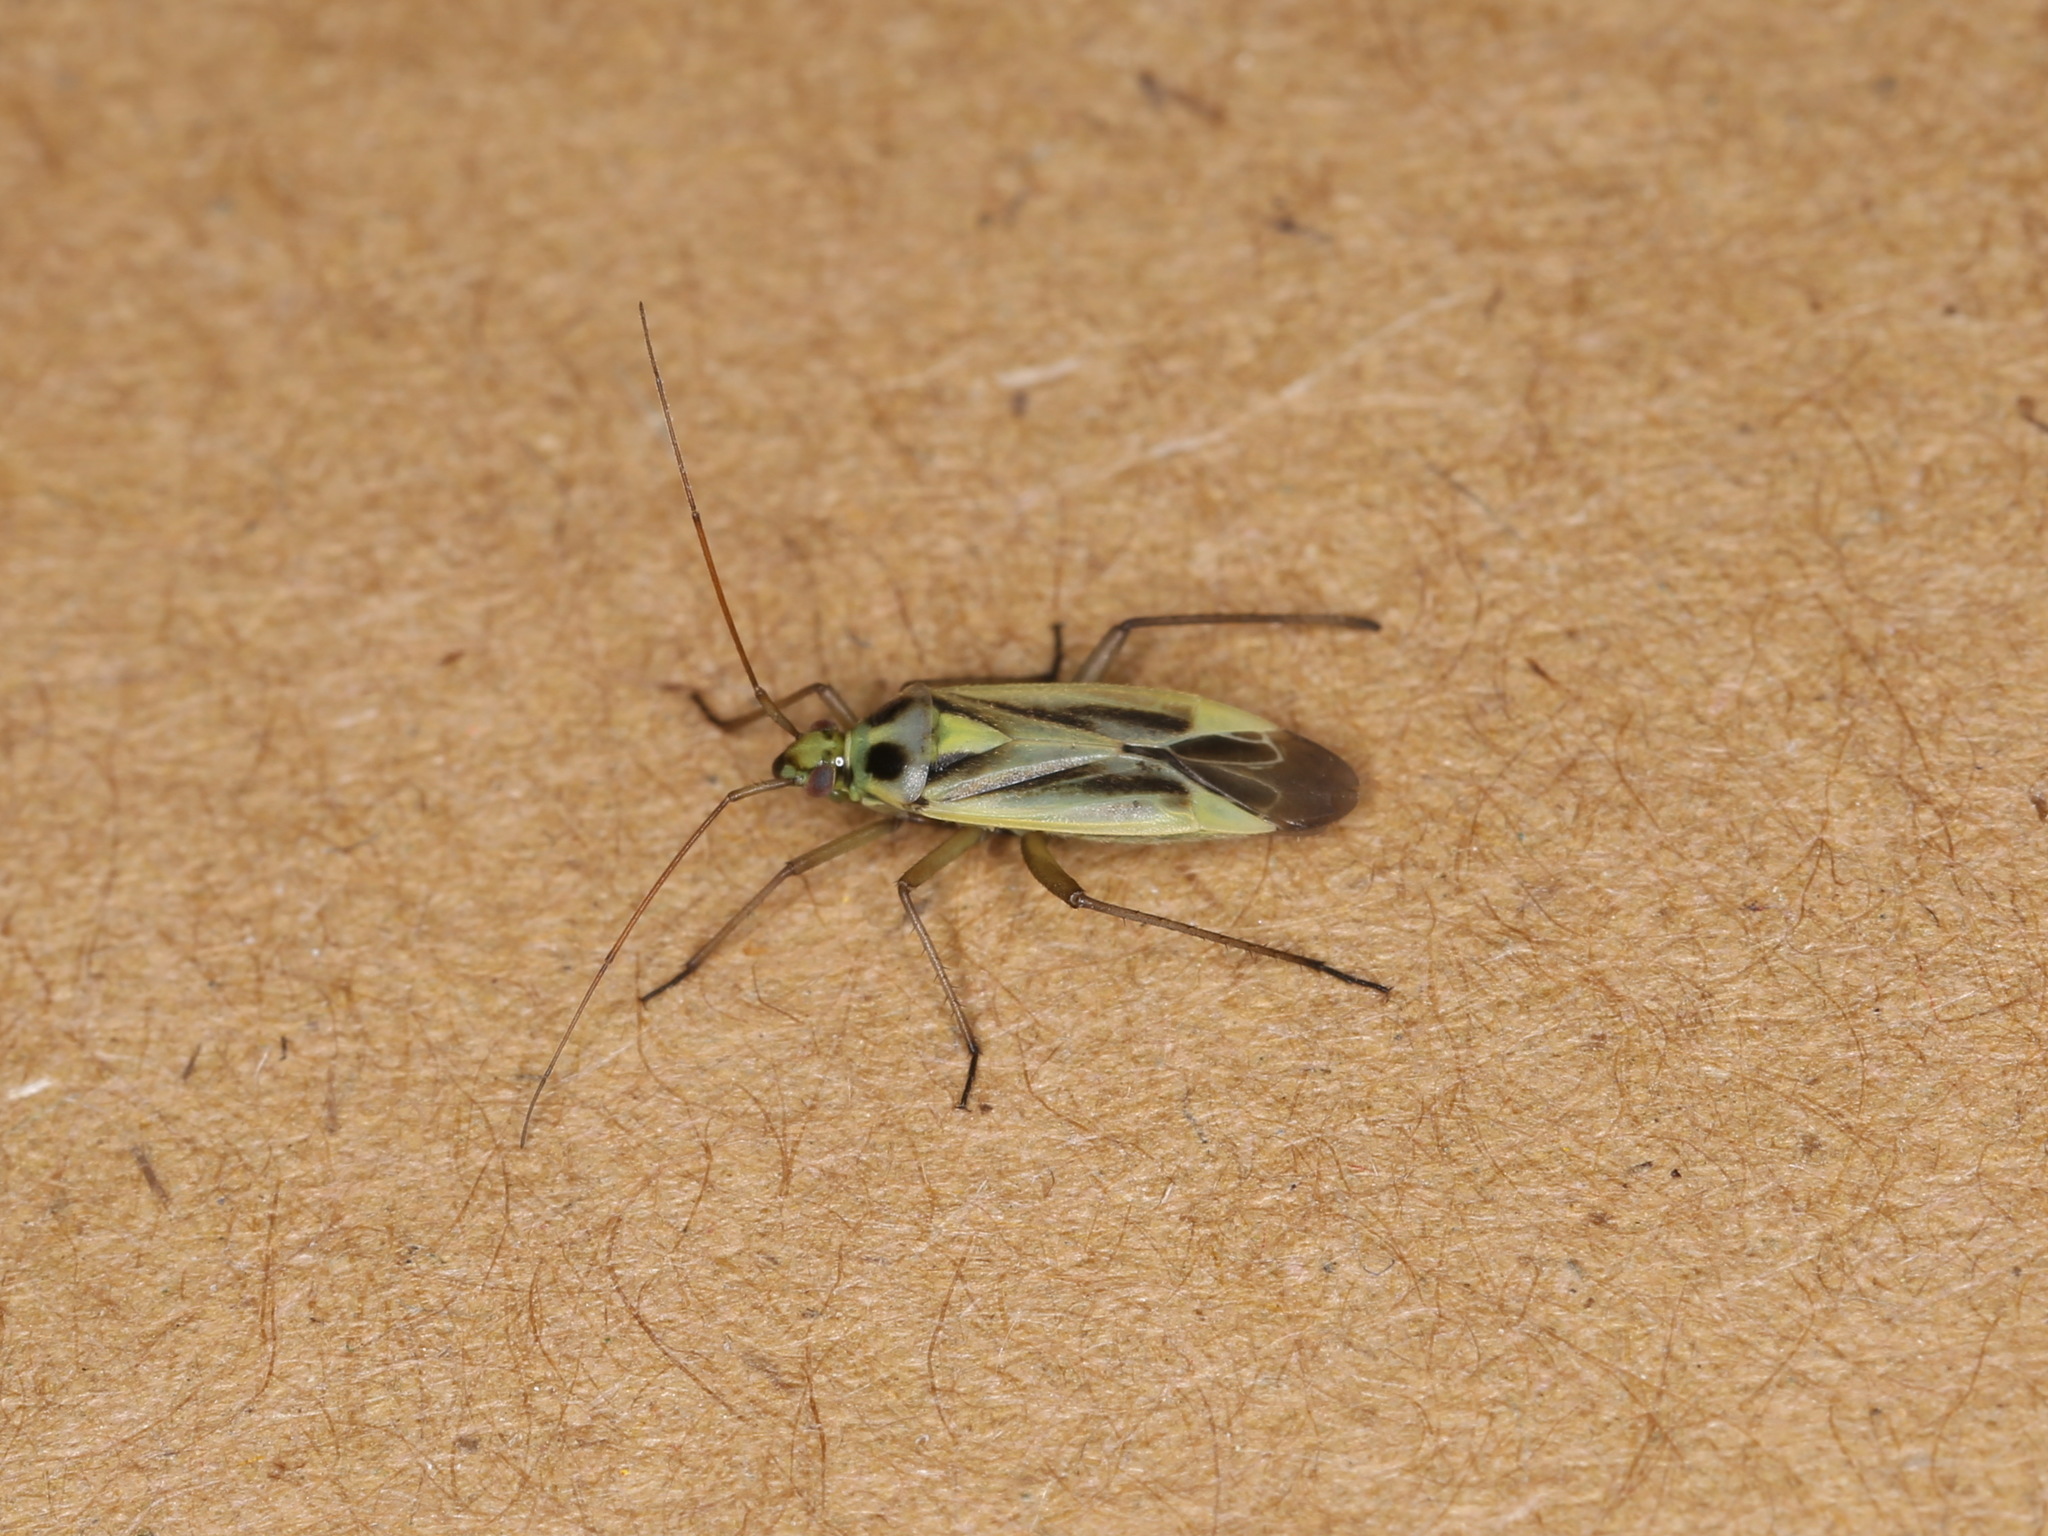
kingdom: Animalia
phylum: Arthropoda
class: Insecta
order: Hemiptera
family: Miridae
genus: Stenotus
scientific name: Stenotus binotatus
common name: Plant bug
